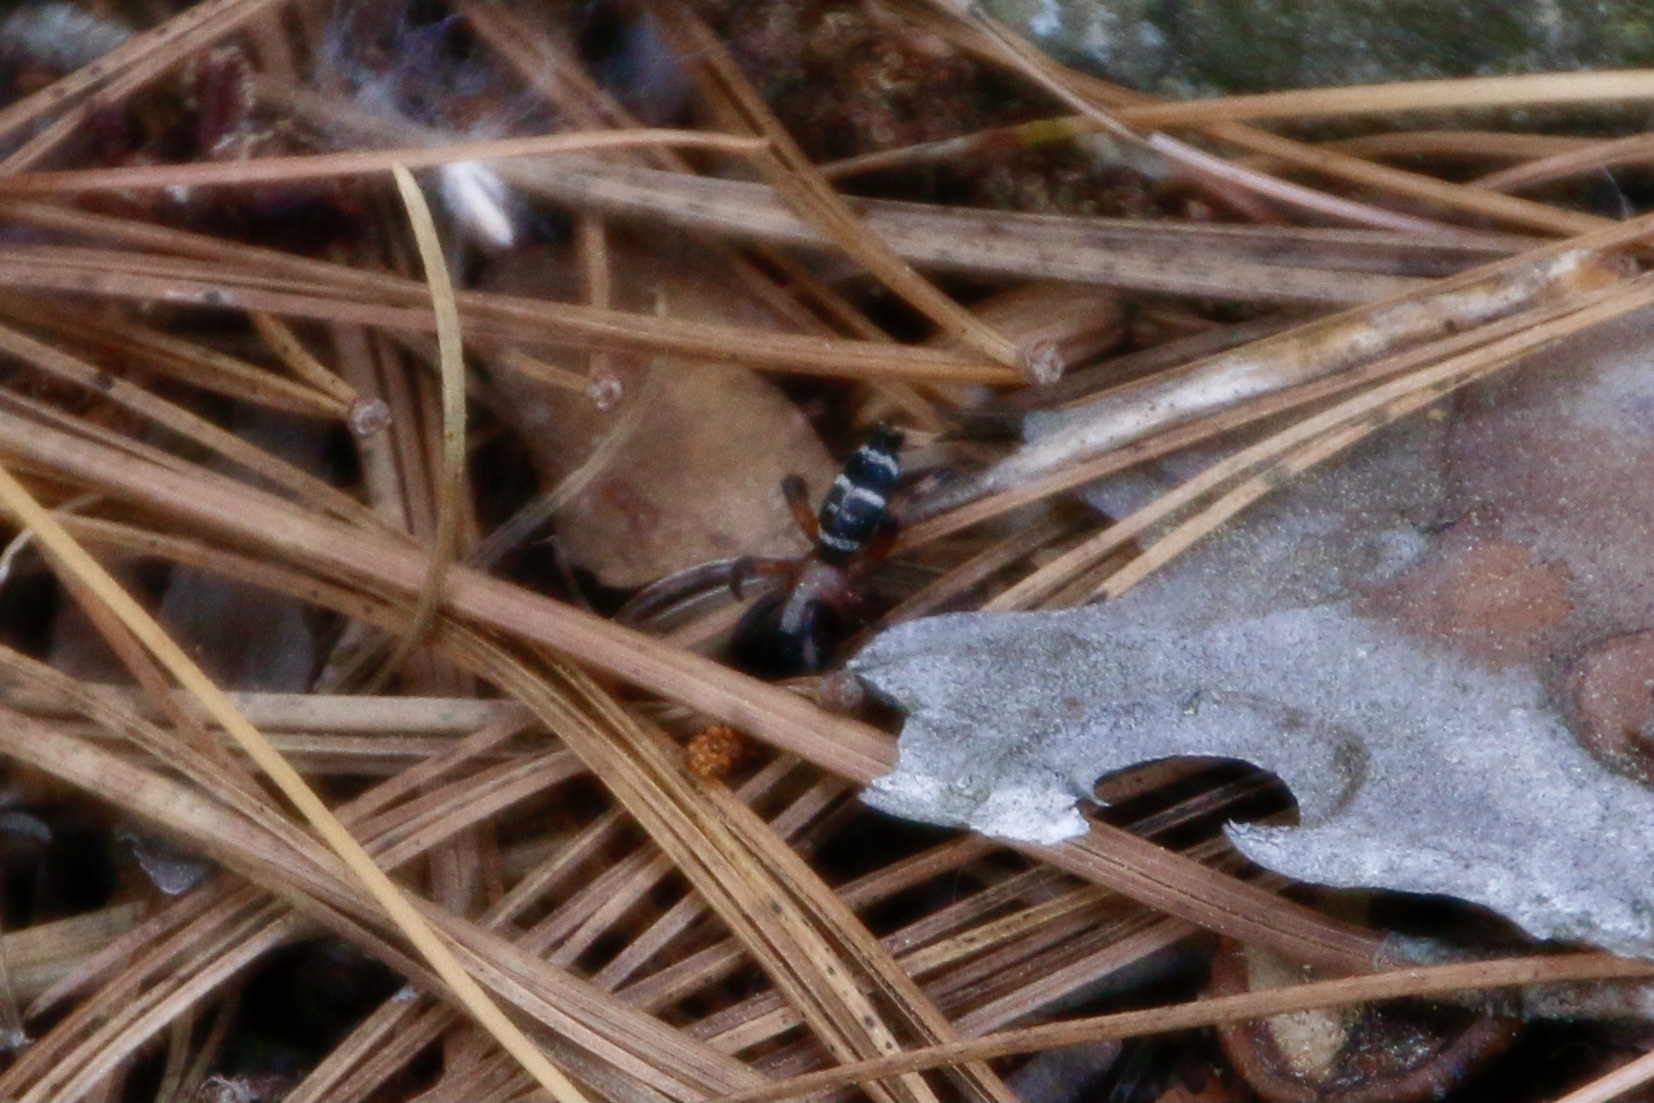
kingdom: Animalia
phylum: Arthropoda
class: Arachnida
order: Araneae
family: Gnaphosidae
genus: Sergiolus
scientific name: Sergiolus capulatus
